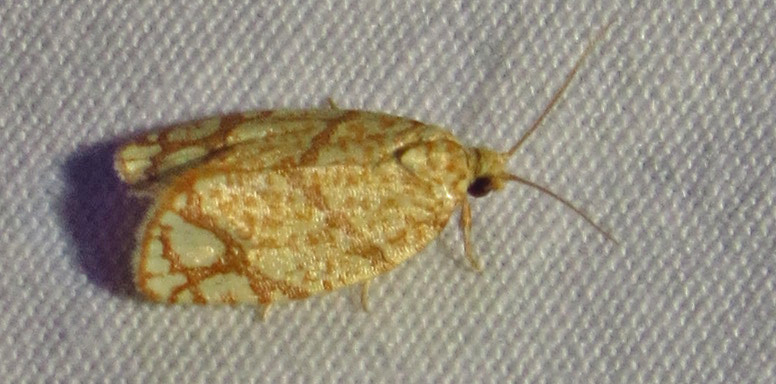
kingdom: Animalia
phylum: Arthropoda
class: Insecta
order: Lepidoptera
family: Tortricidae
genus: Argyrotaenia
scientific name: Argyrotaenia quercifoliana
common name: Yellow-winged oak leafroller moth
